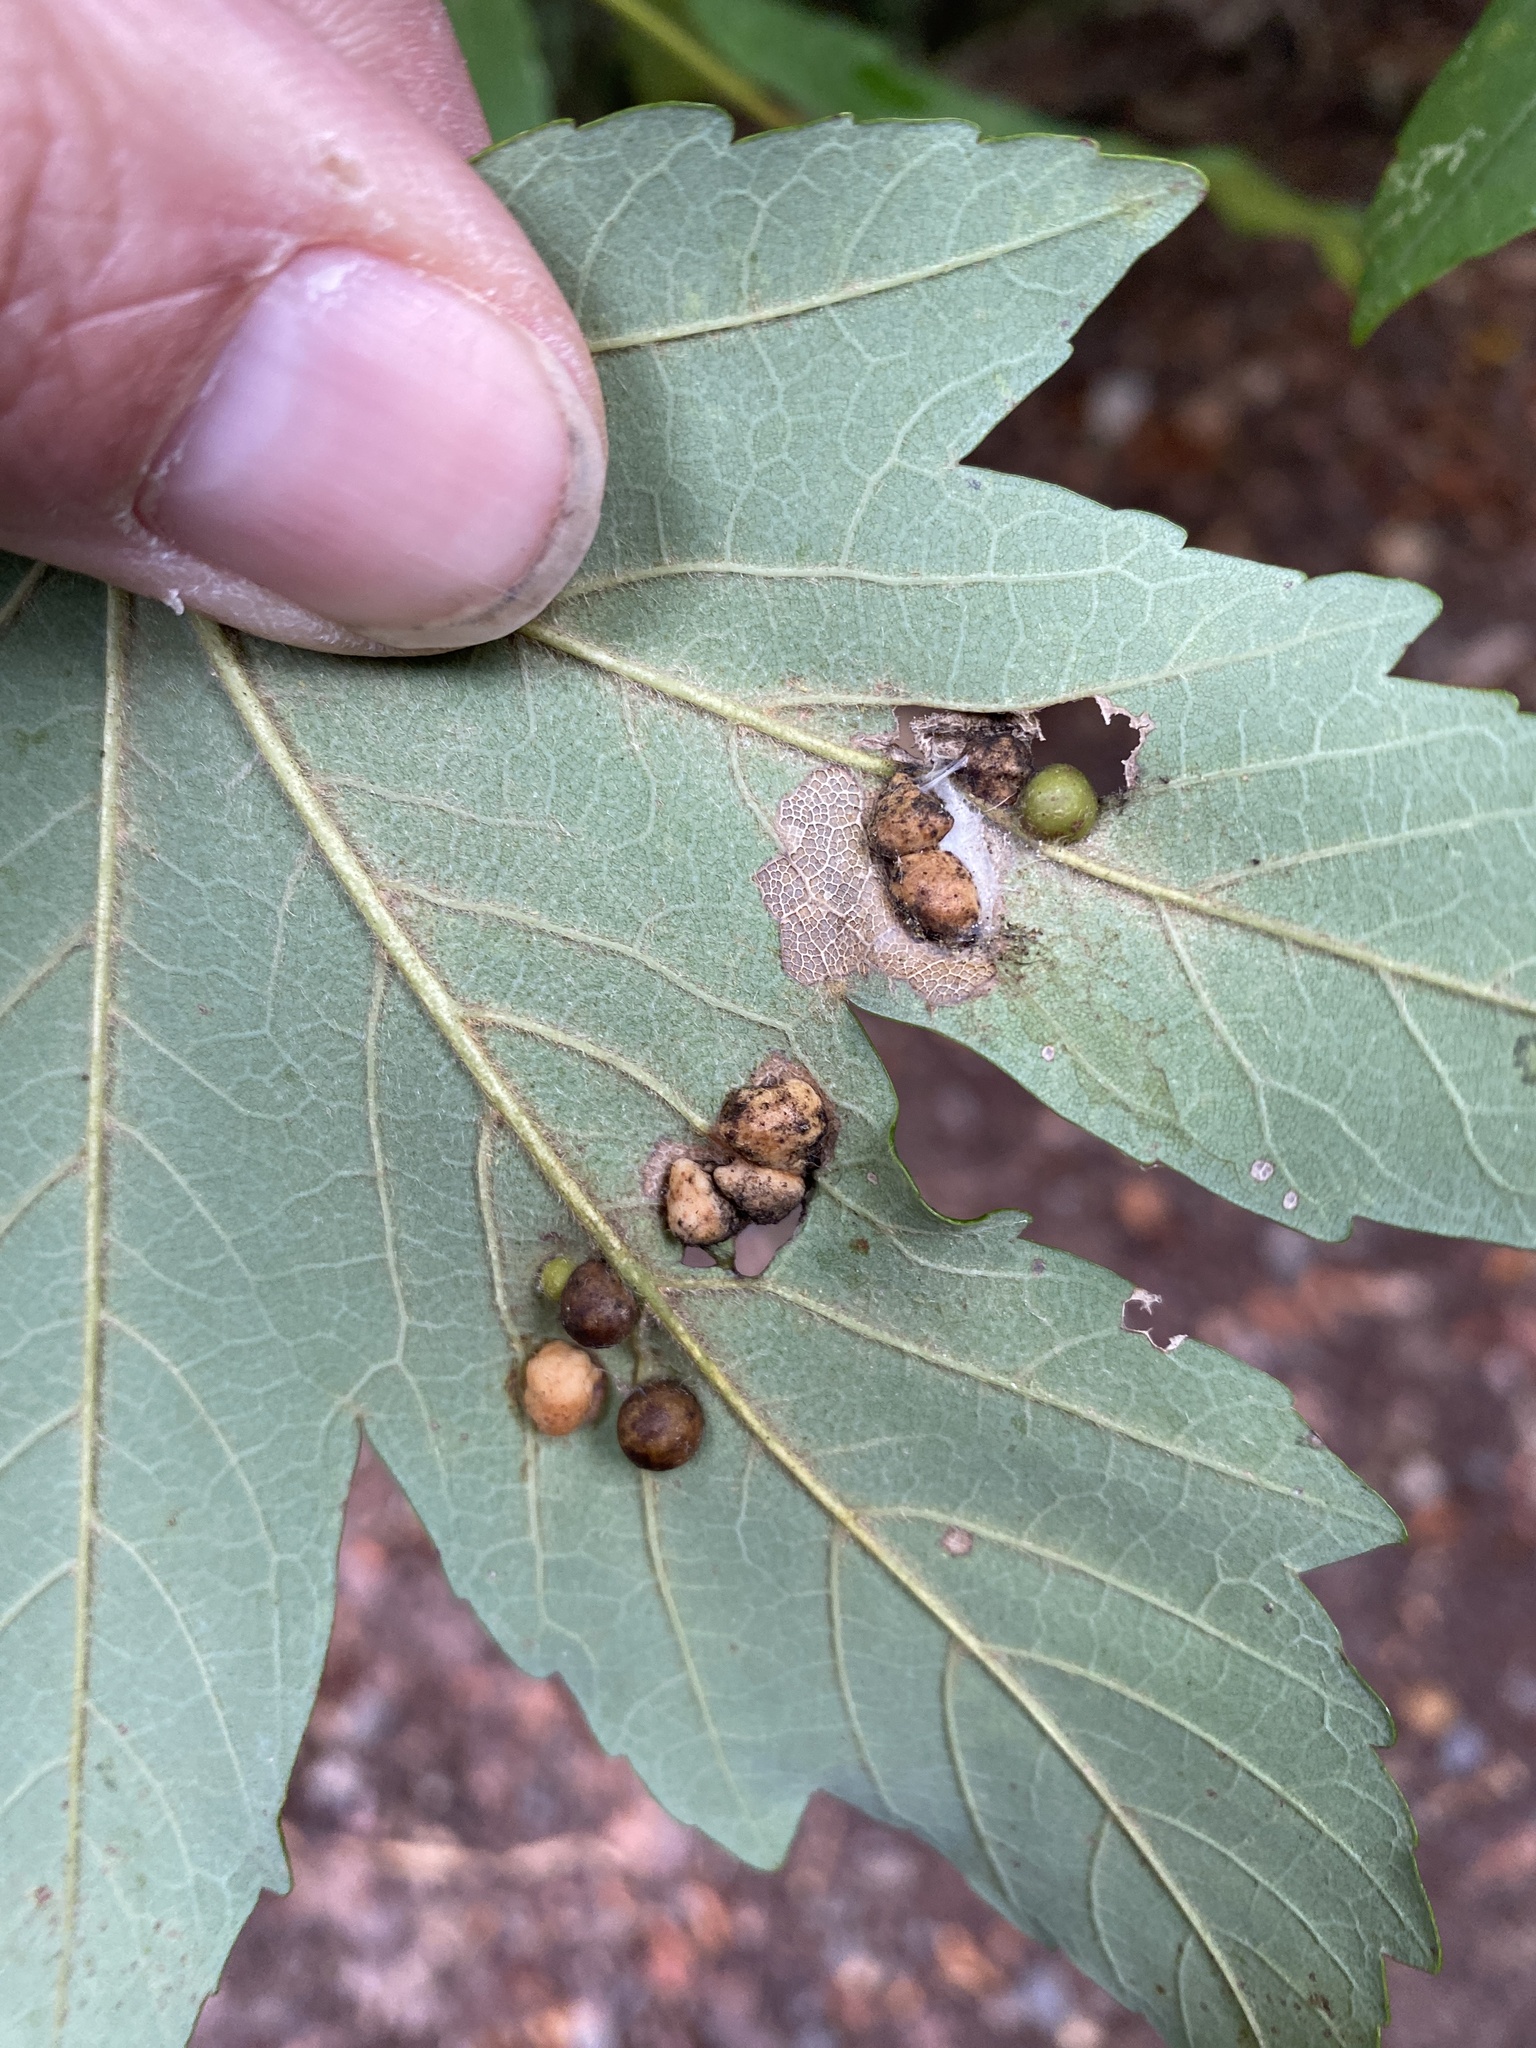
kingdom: Animalia
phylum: Arthropoda
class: Insecta
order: Hymenoptera
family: Eulophidae
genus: Dichatomus
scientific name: Dichatomus acerinus
